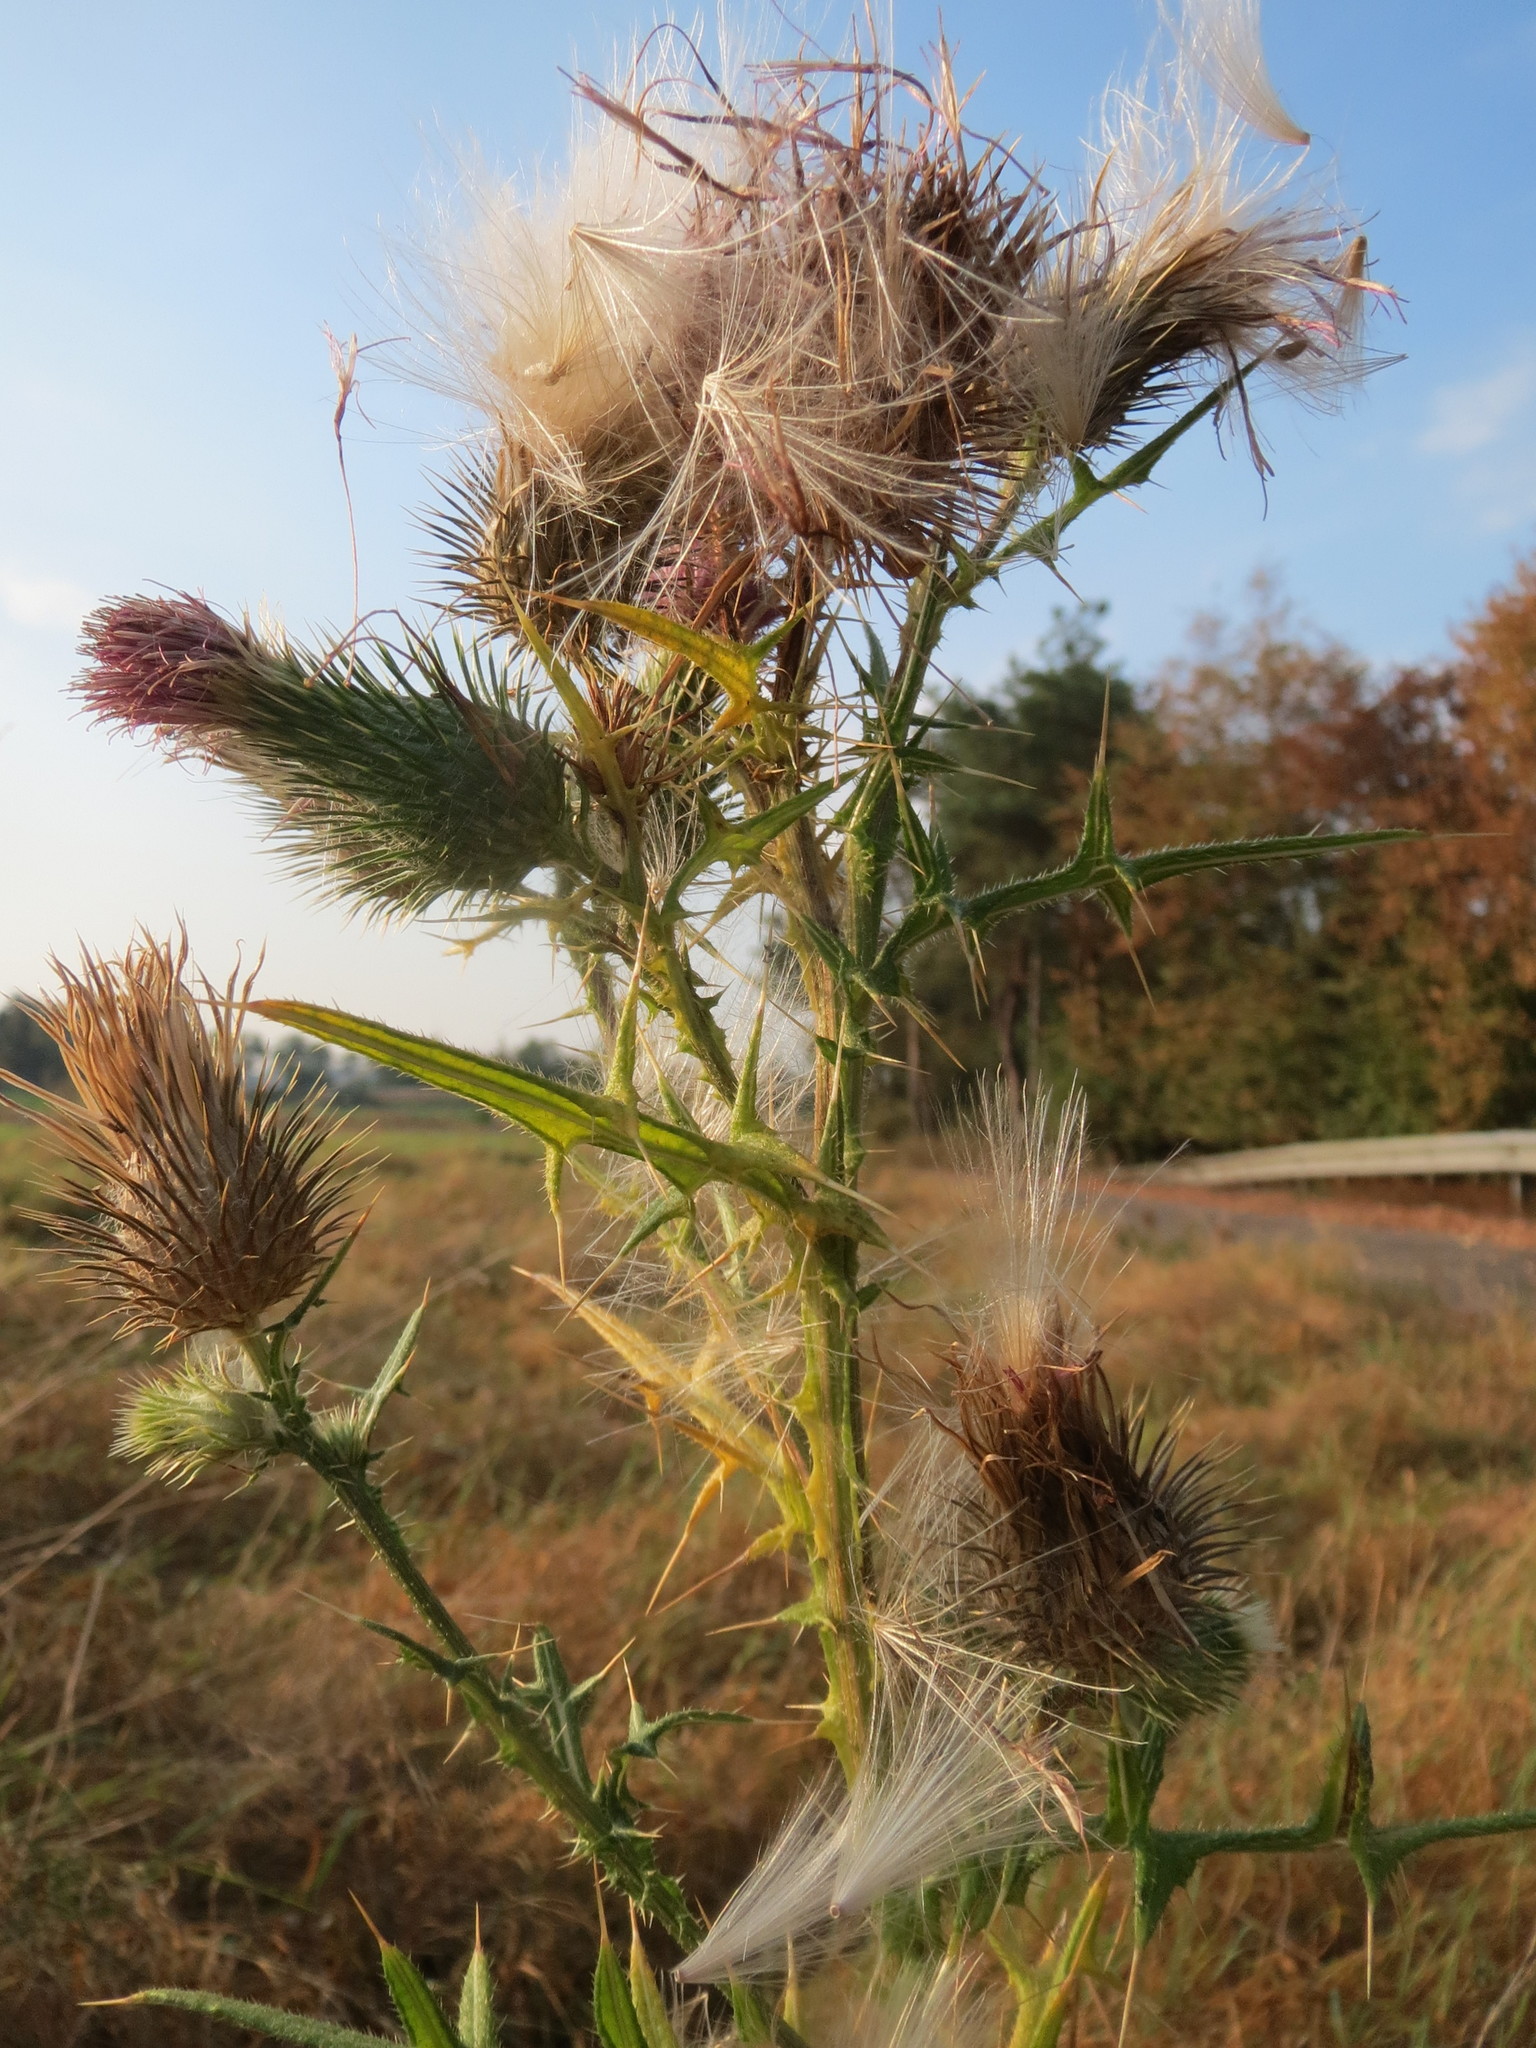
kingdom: Plantae
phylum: Tracheophyta
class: Magnoliopsida
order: Asterales
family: Asteraceae
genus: Cirsium
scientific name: Cirsium vulgare
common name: Bull thistle
